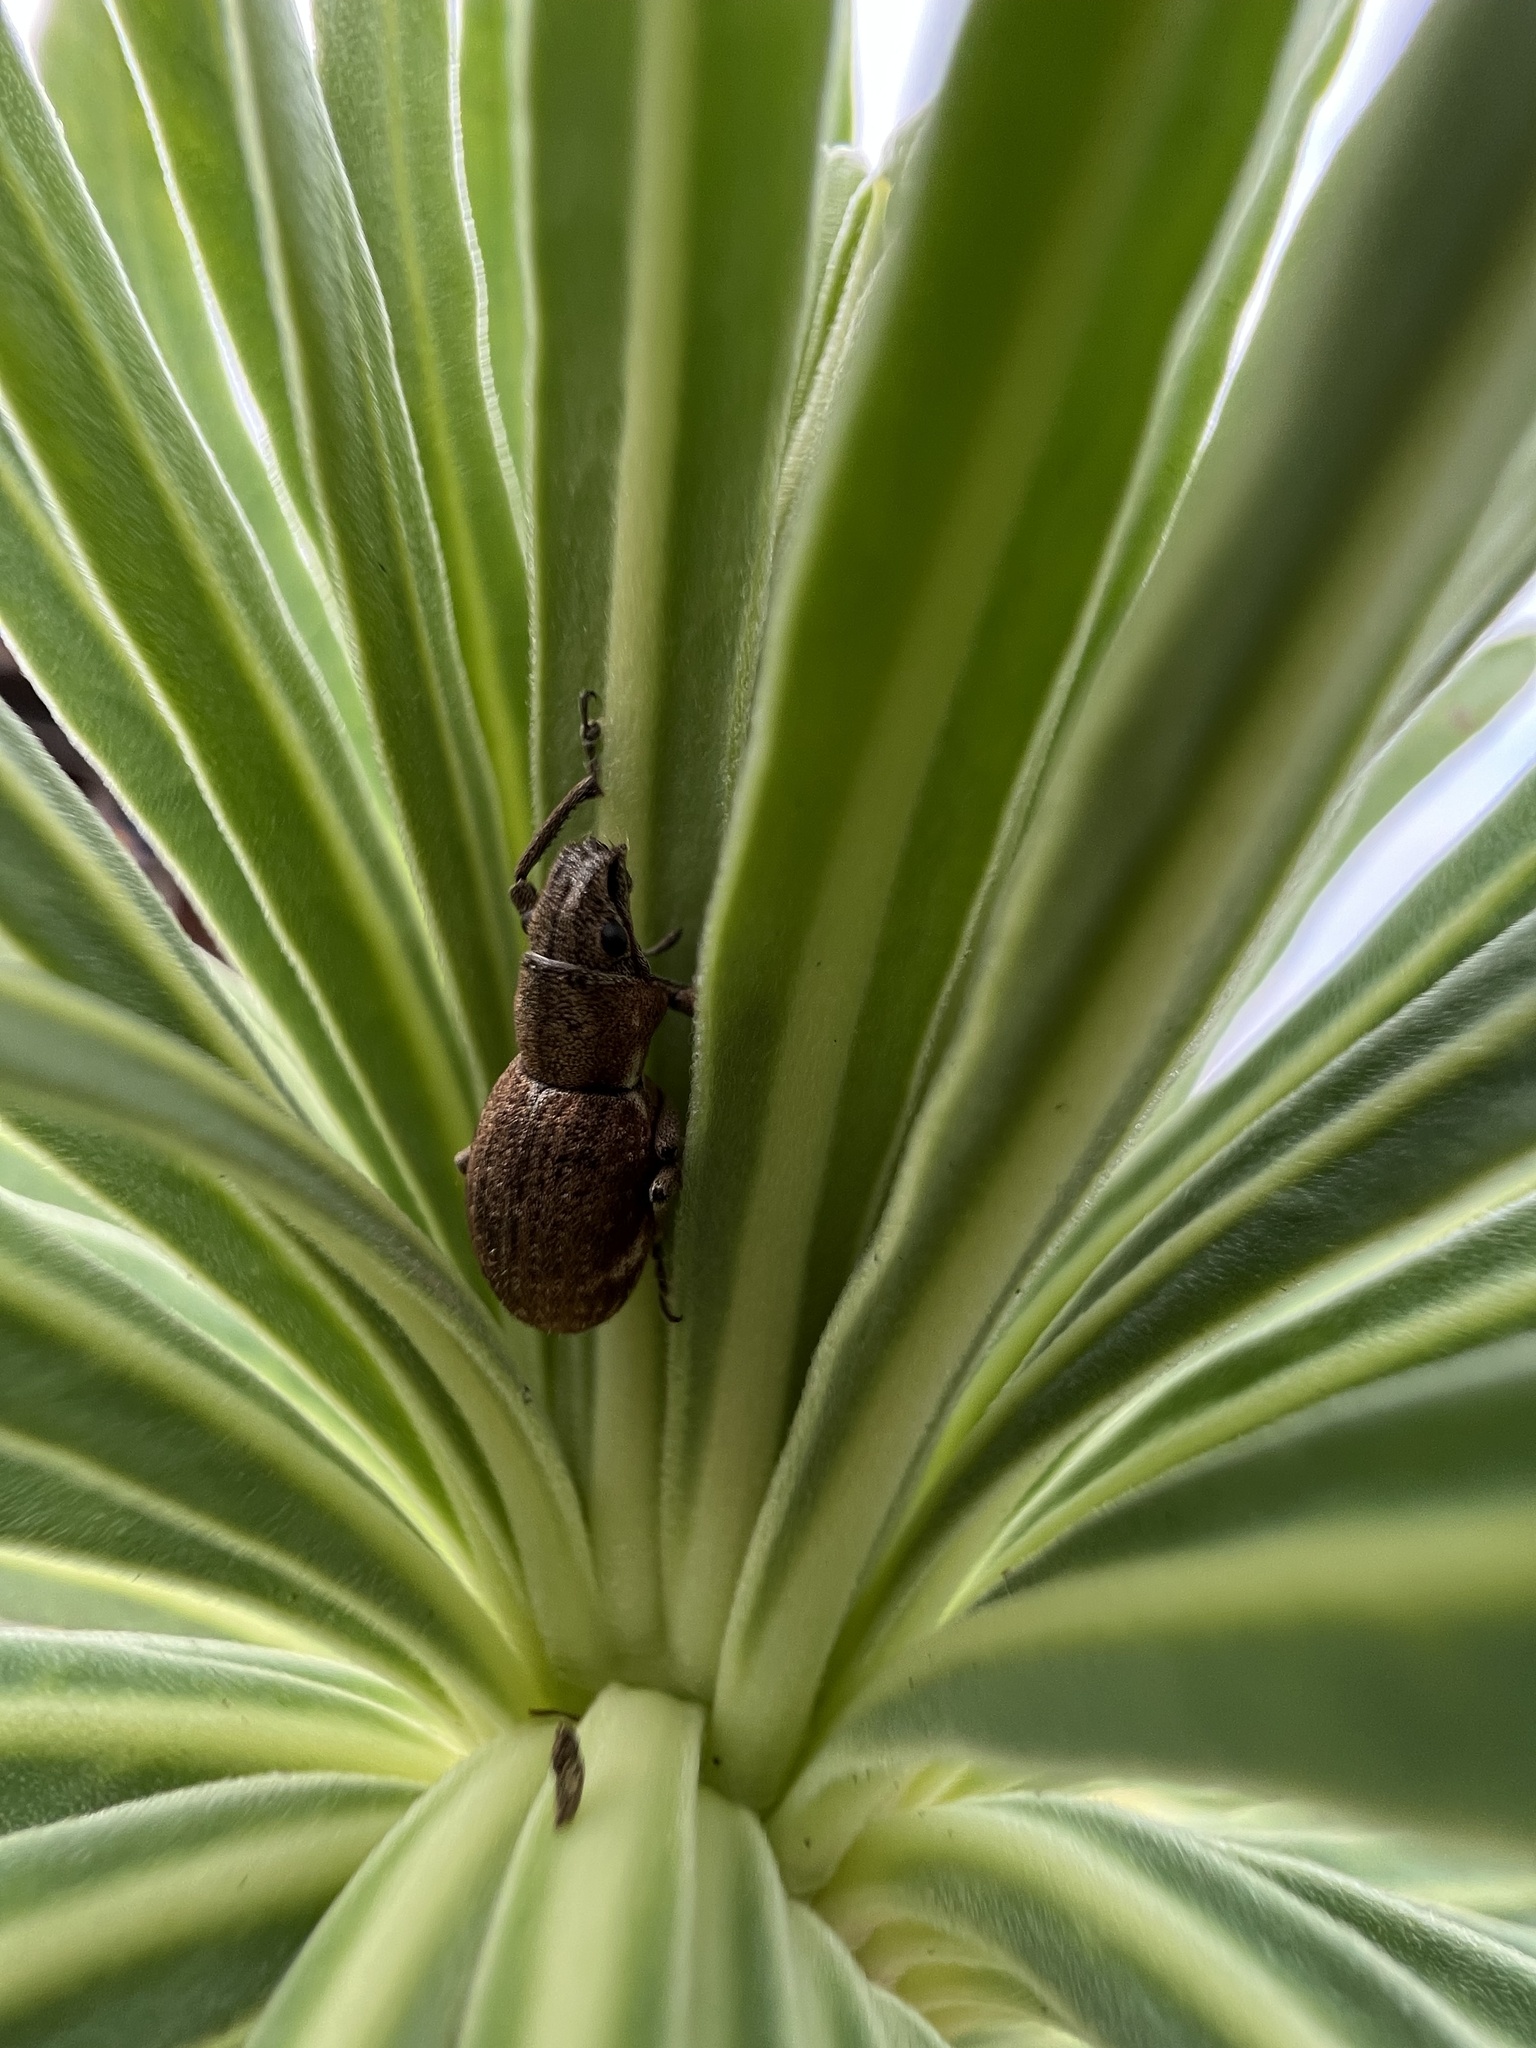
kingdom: Animalia
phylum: Arthropoda
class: Insecta
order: Coleoptera
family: Curculionidae
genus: Naupactus
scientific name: Naupactus cervinus
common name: Fuller rose beetle
